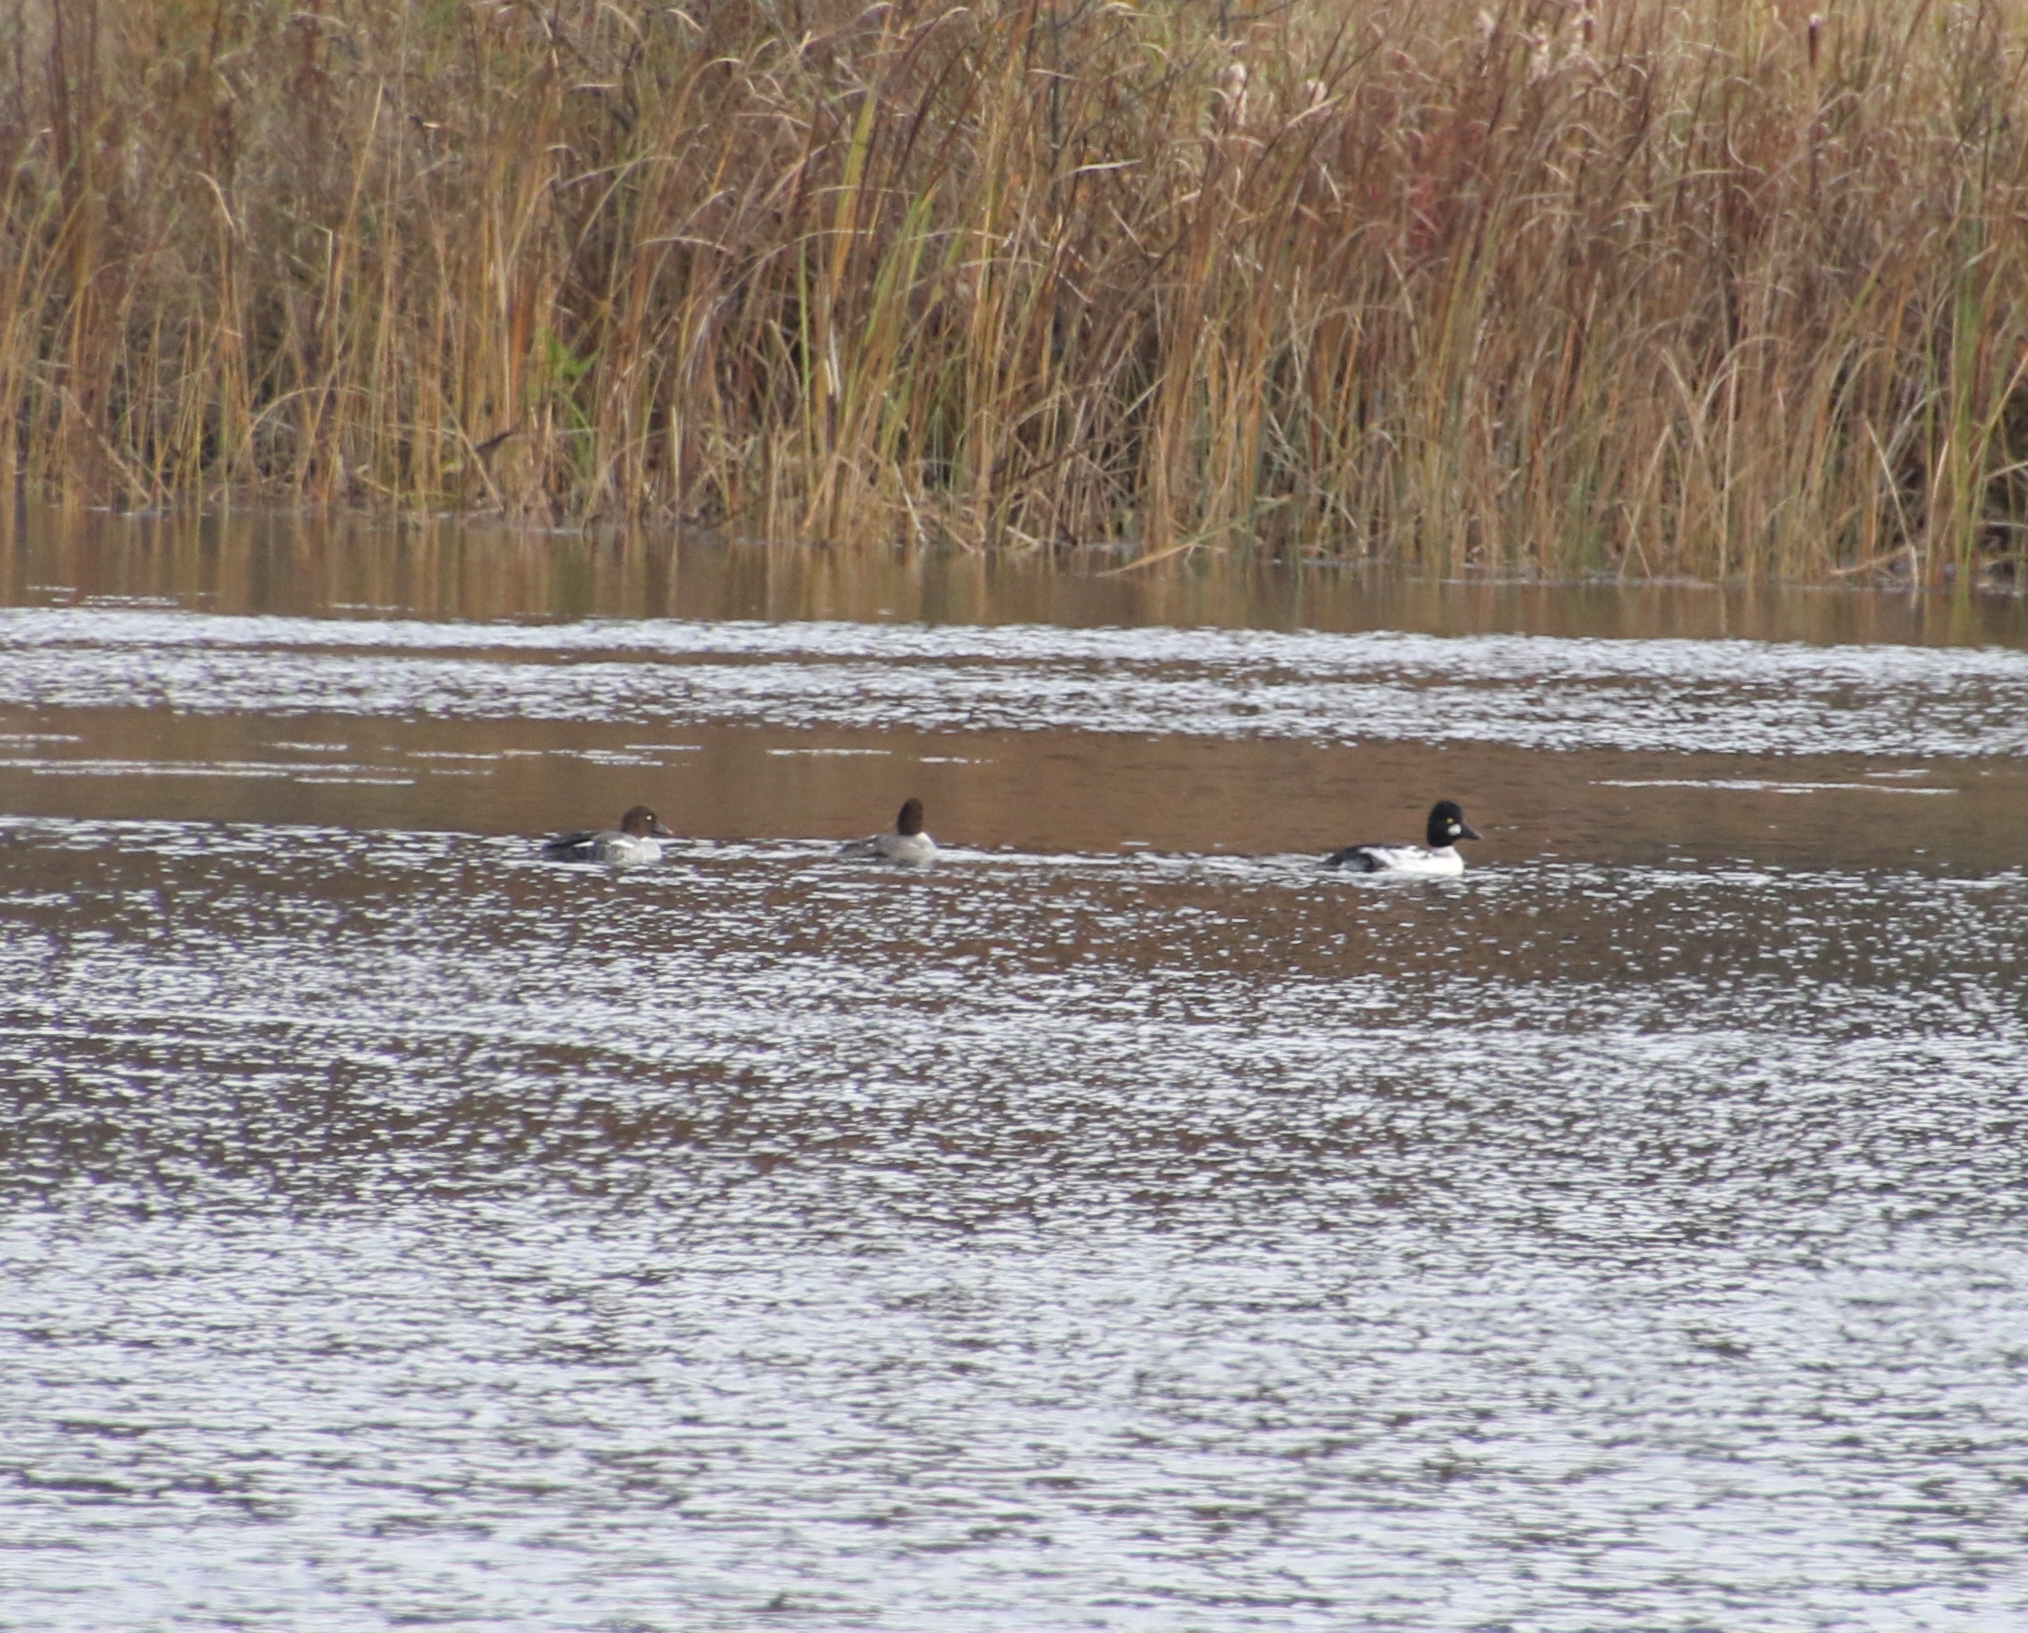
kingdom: Animalia
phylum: Chordata
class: Aves
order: Anseriformes
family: Anatidae
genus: Bucephala
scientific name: Bucephala clangula
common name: Common goldeneye
